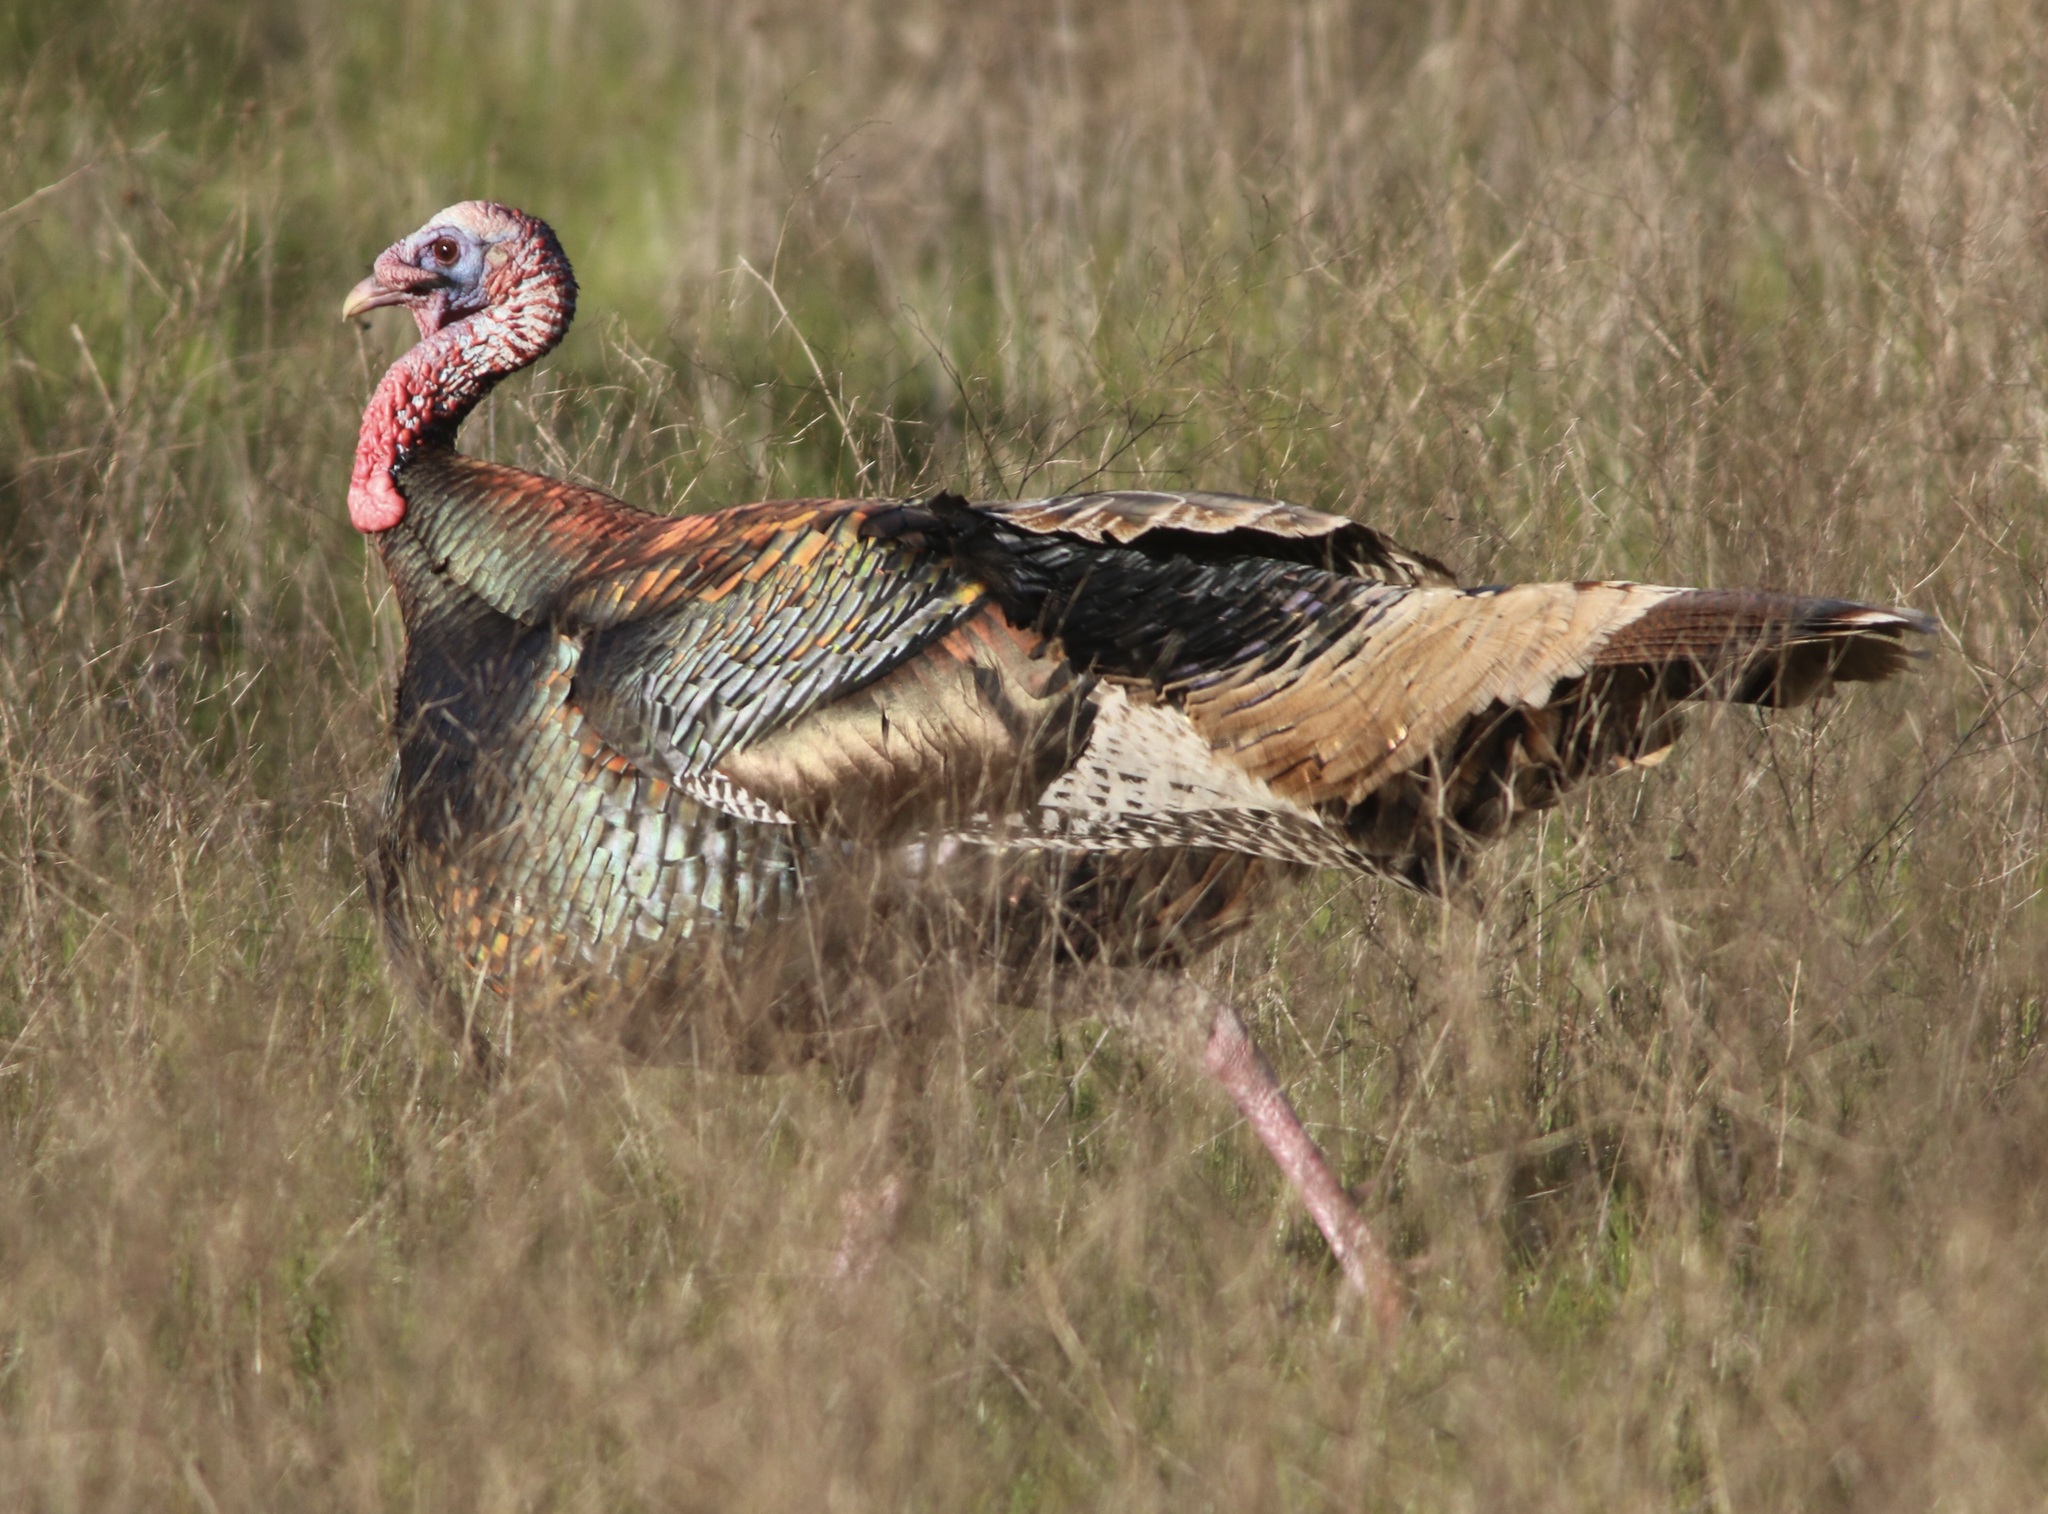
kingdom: Animalia
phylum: Chordata
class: Aves
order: Galliformes
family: Phasianidae
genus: Meleagris
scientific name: Meleagris gallopavo
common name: Wild turkey
